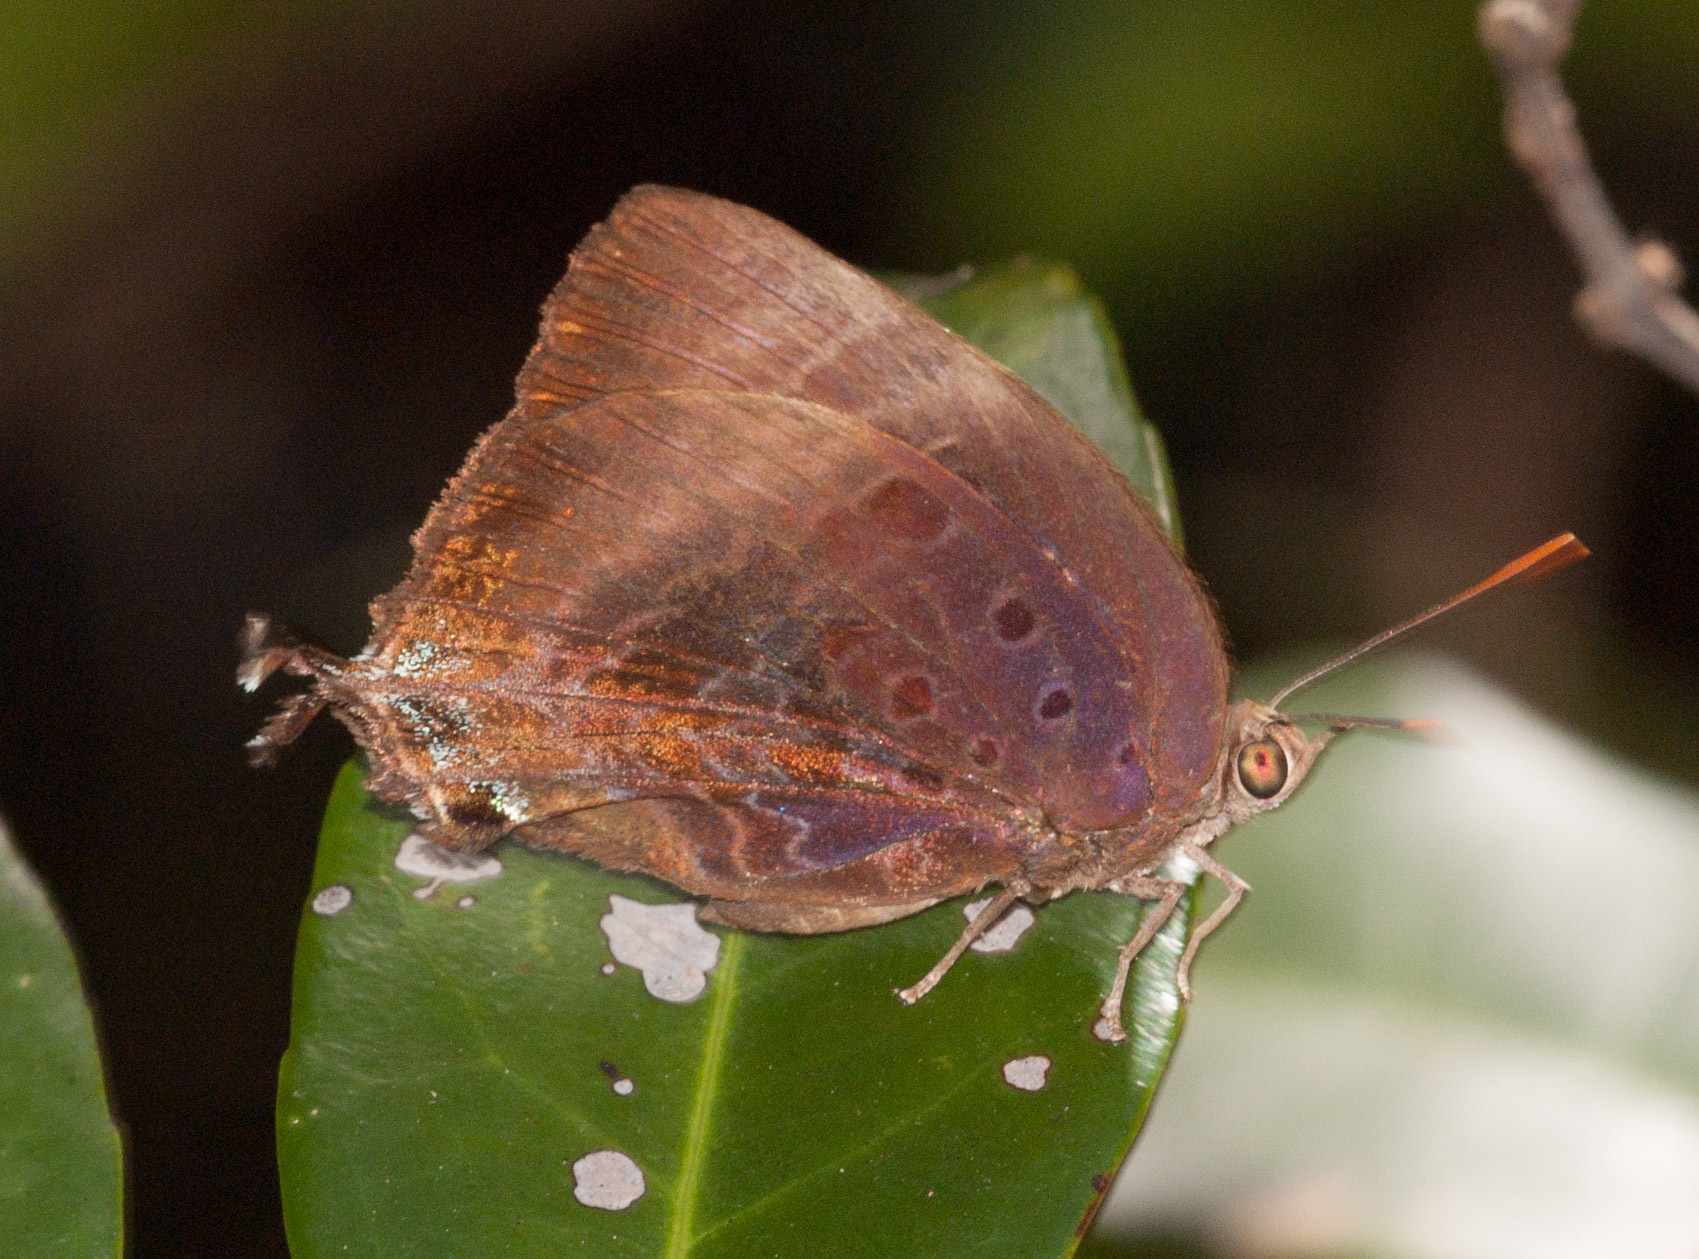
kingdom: Animalia
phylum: Arthropoda
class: Insecta
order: Lepidoptera
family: Lycaenidae
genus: Arhopala
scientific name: Arhopala madytus
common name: Bright oak-blue
